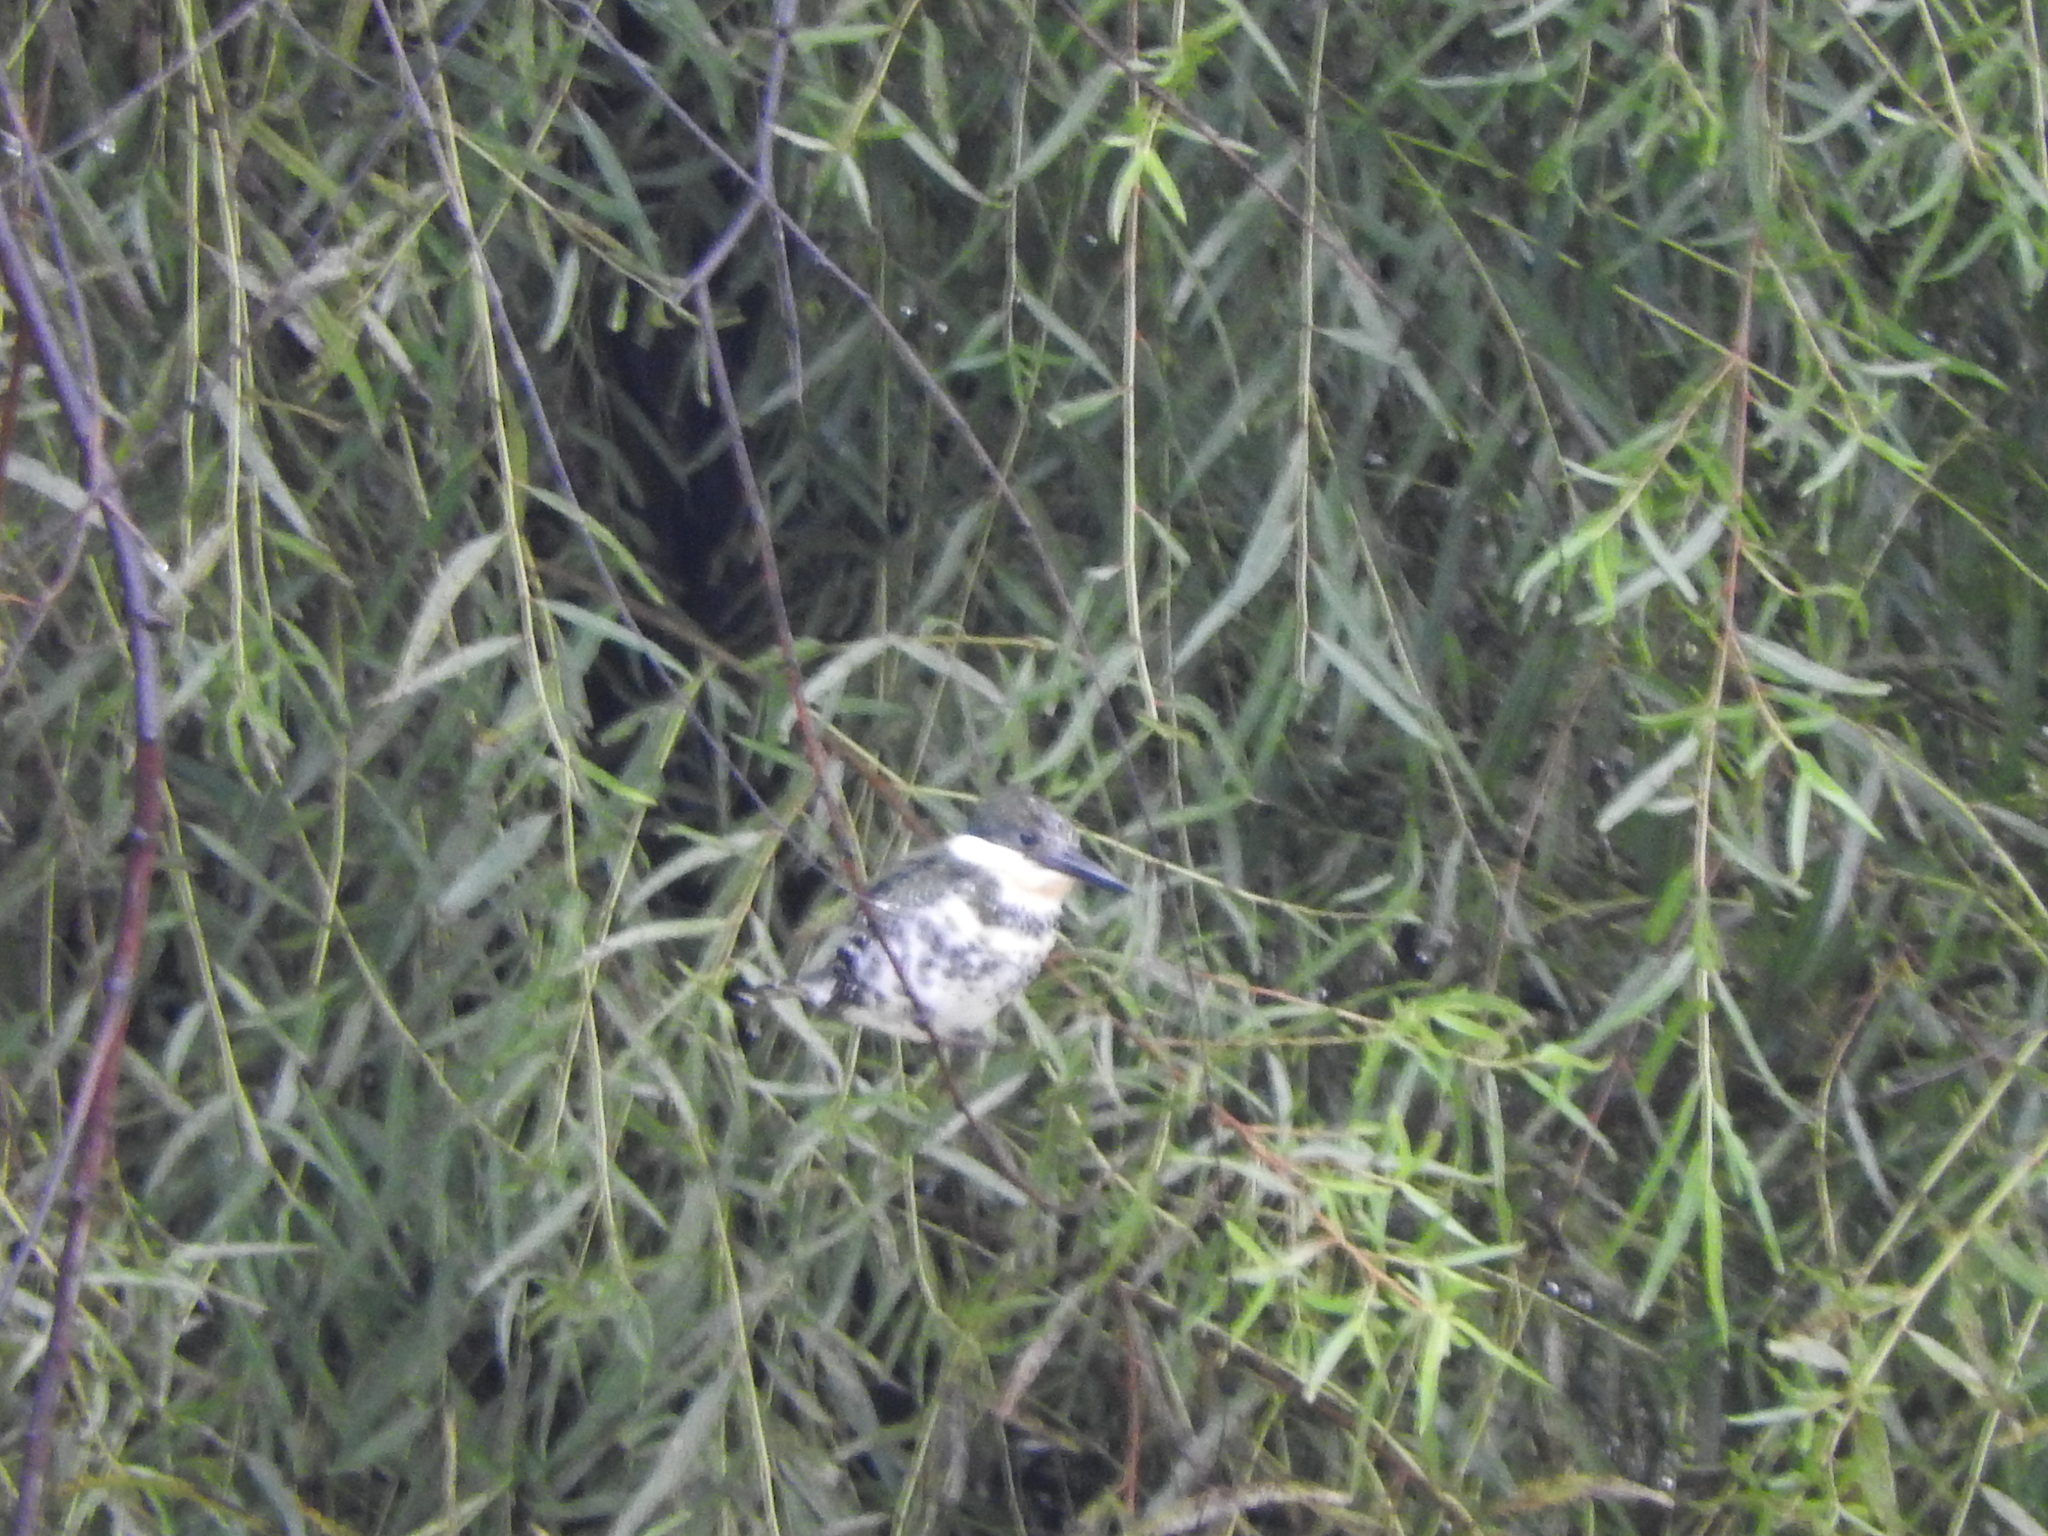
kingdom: Animalia
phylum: Chordata
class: Aves
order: Coraciiformes
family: Alcedinidae
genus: Chloroceryle
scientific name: Chloroceryle americana
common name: Green kingfisher
